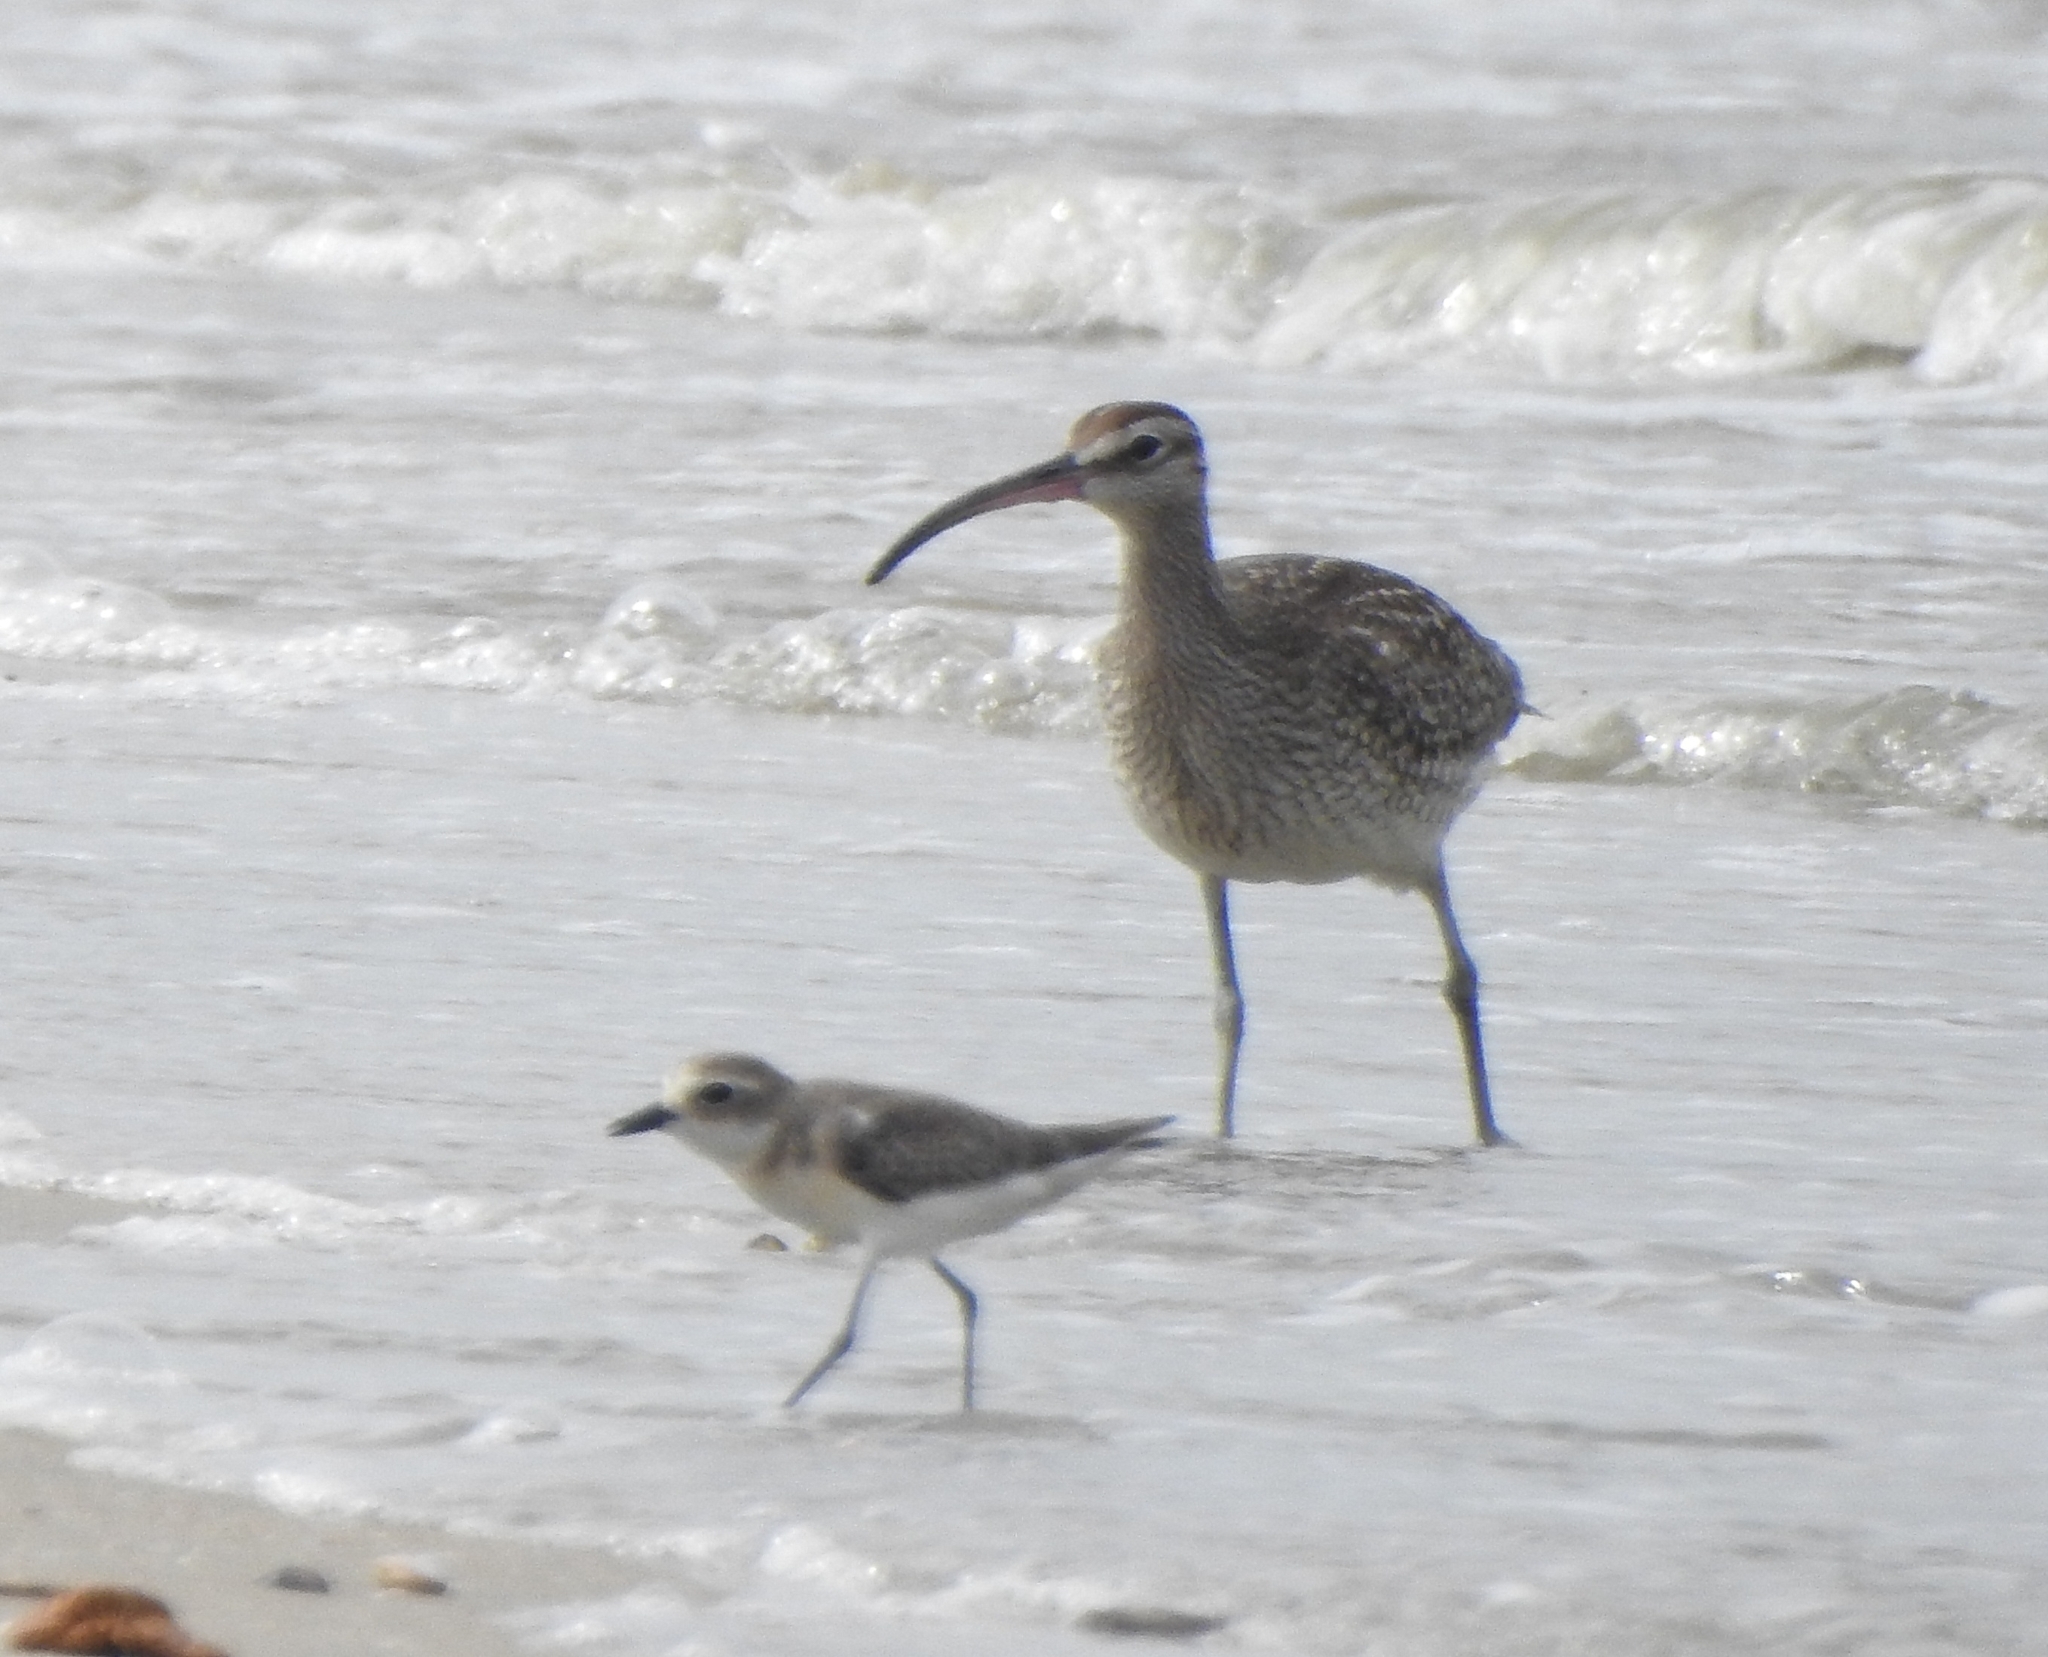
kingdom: Animalia
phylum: Chordata
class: Aves
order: Charadriiformes
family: Scolopacidae
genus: Numenius
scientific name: Numenius phaeopus
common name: Whimbrel
